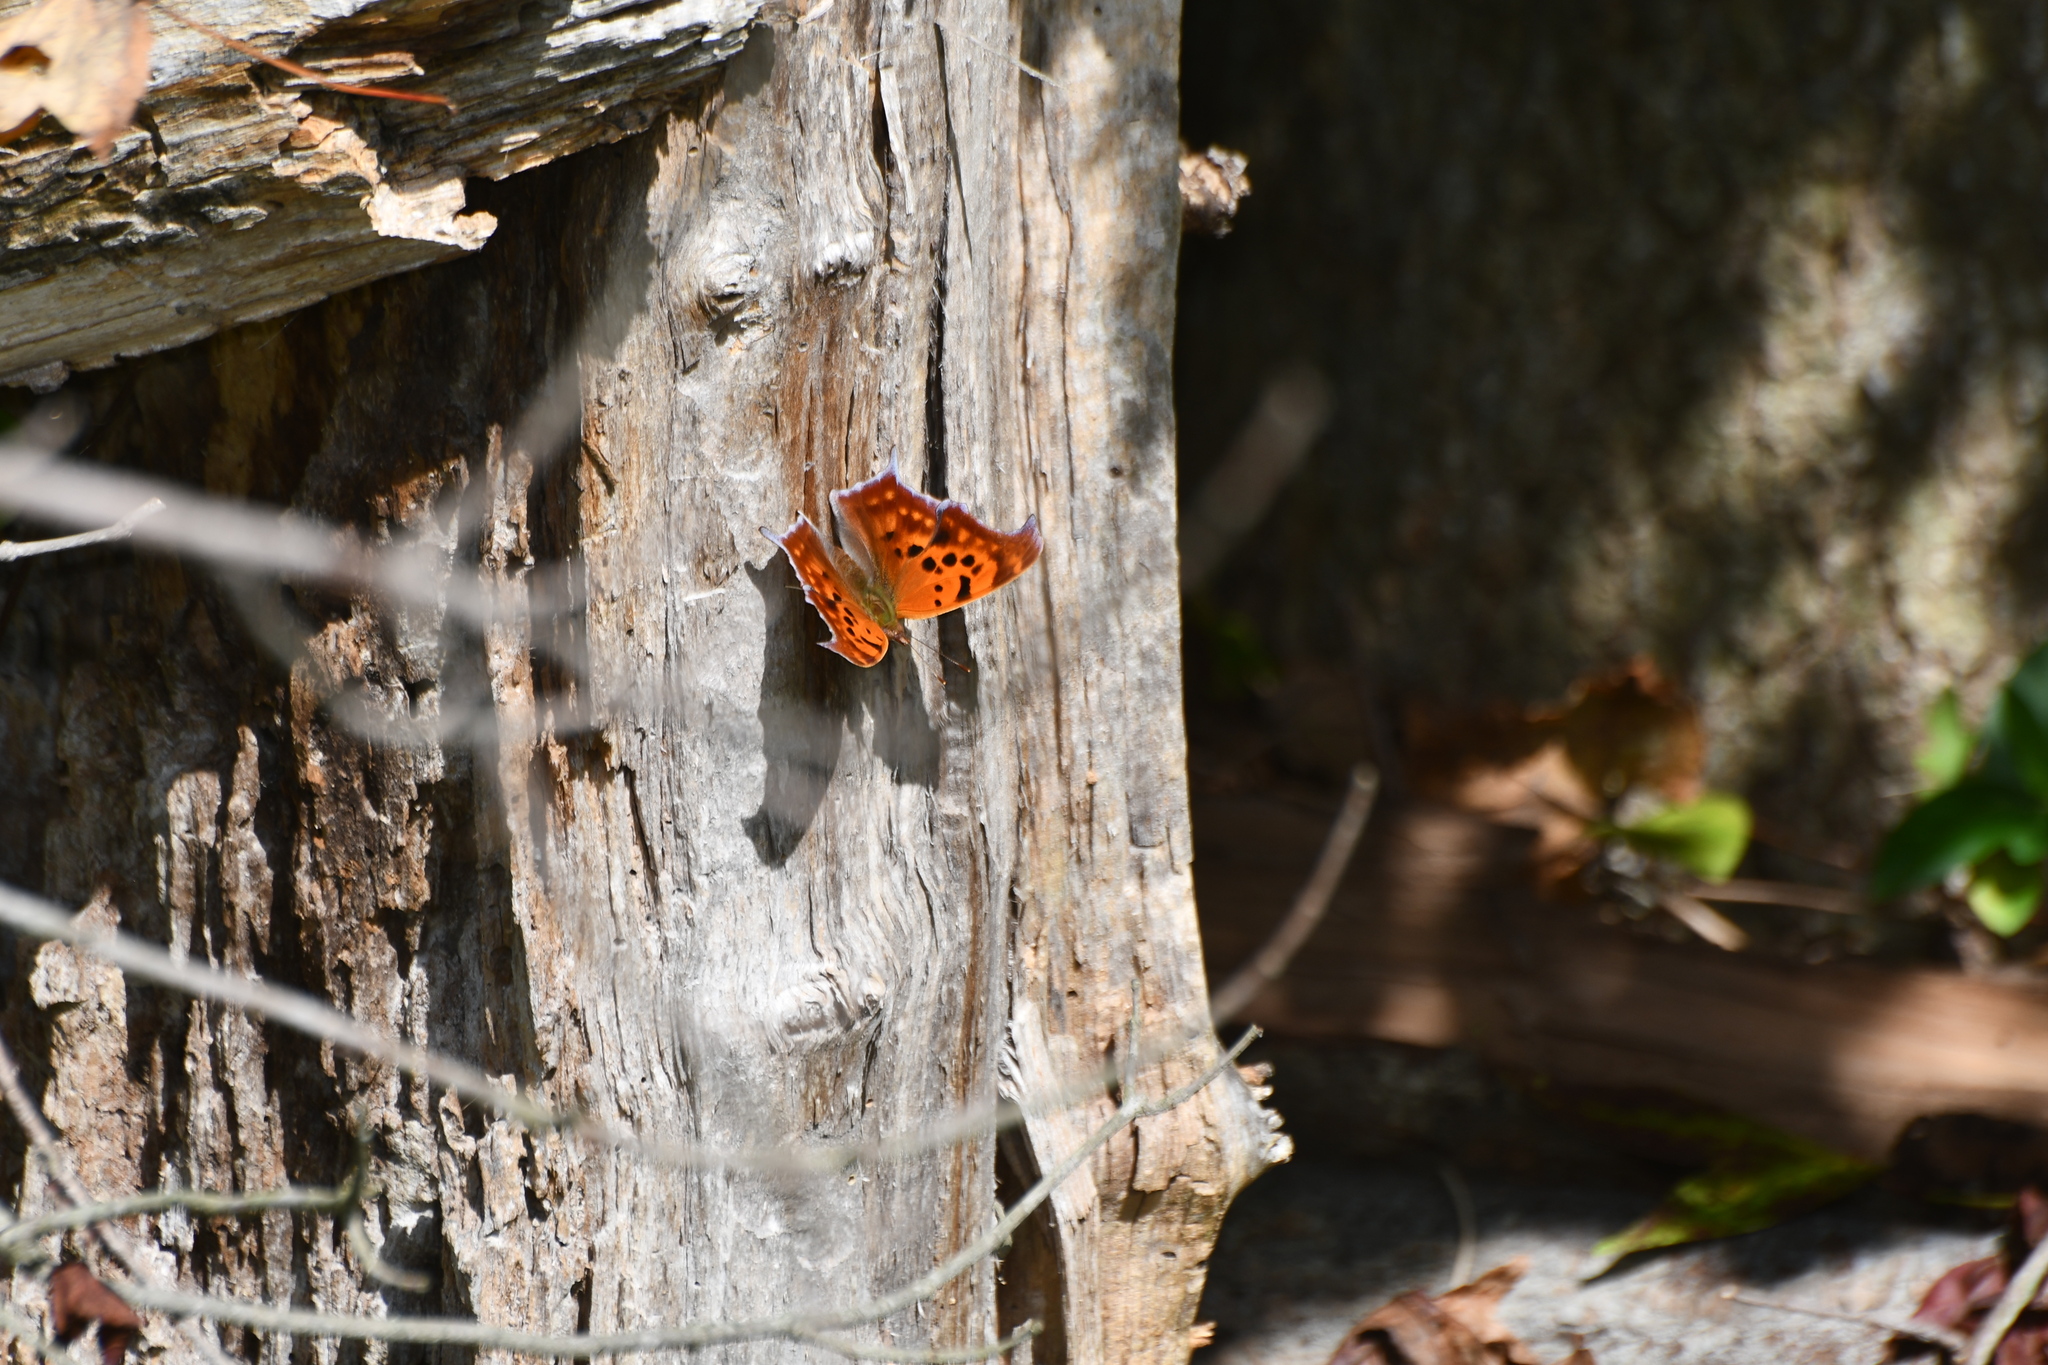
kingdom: Animalia
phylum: Arthropoda
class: Insecta
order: Lepidoptera
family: Nymphalidae
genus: Polygonia
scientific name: Polygonia interrogationis
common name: Question mark
